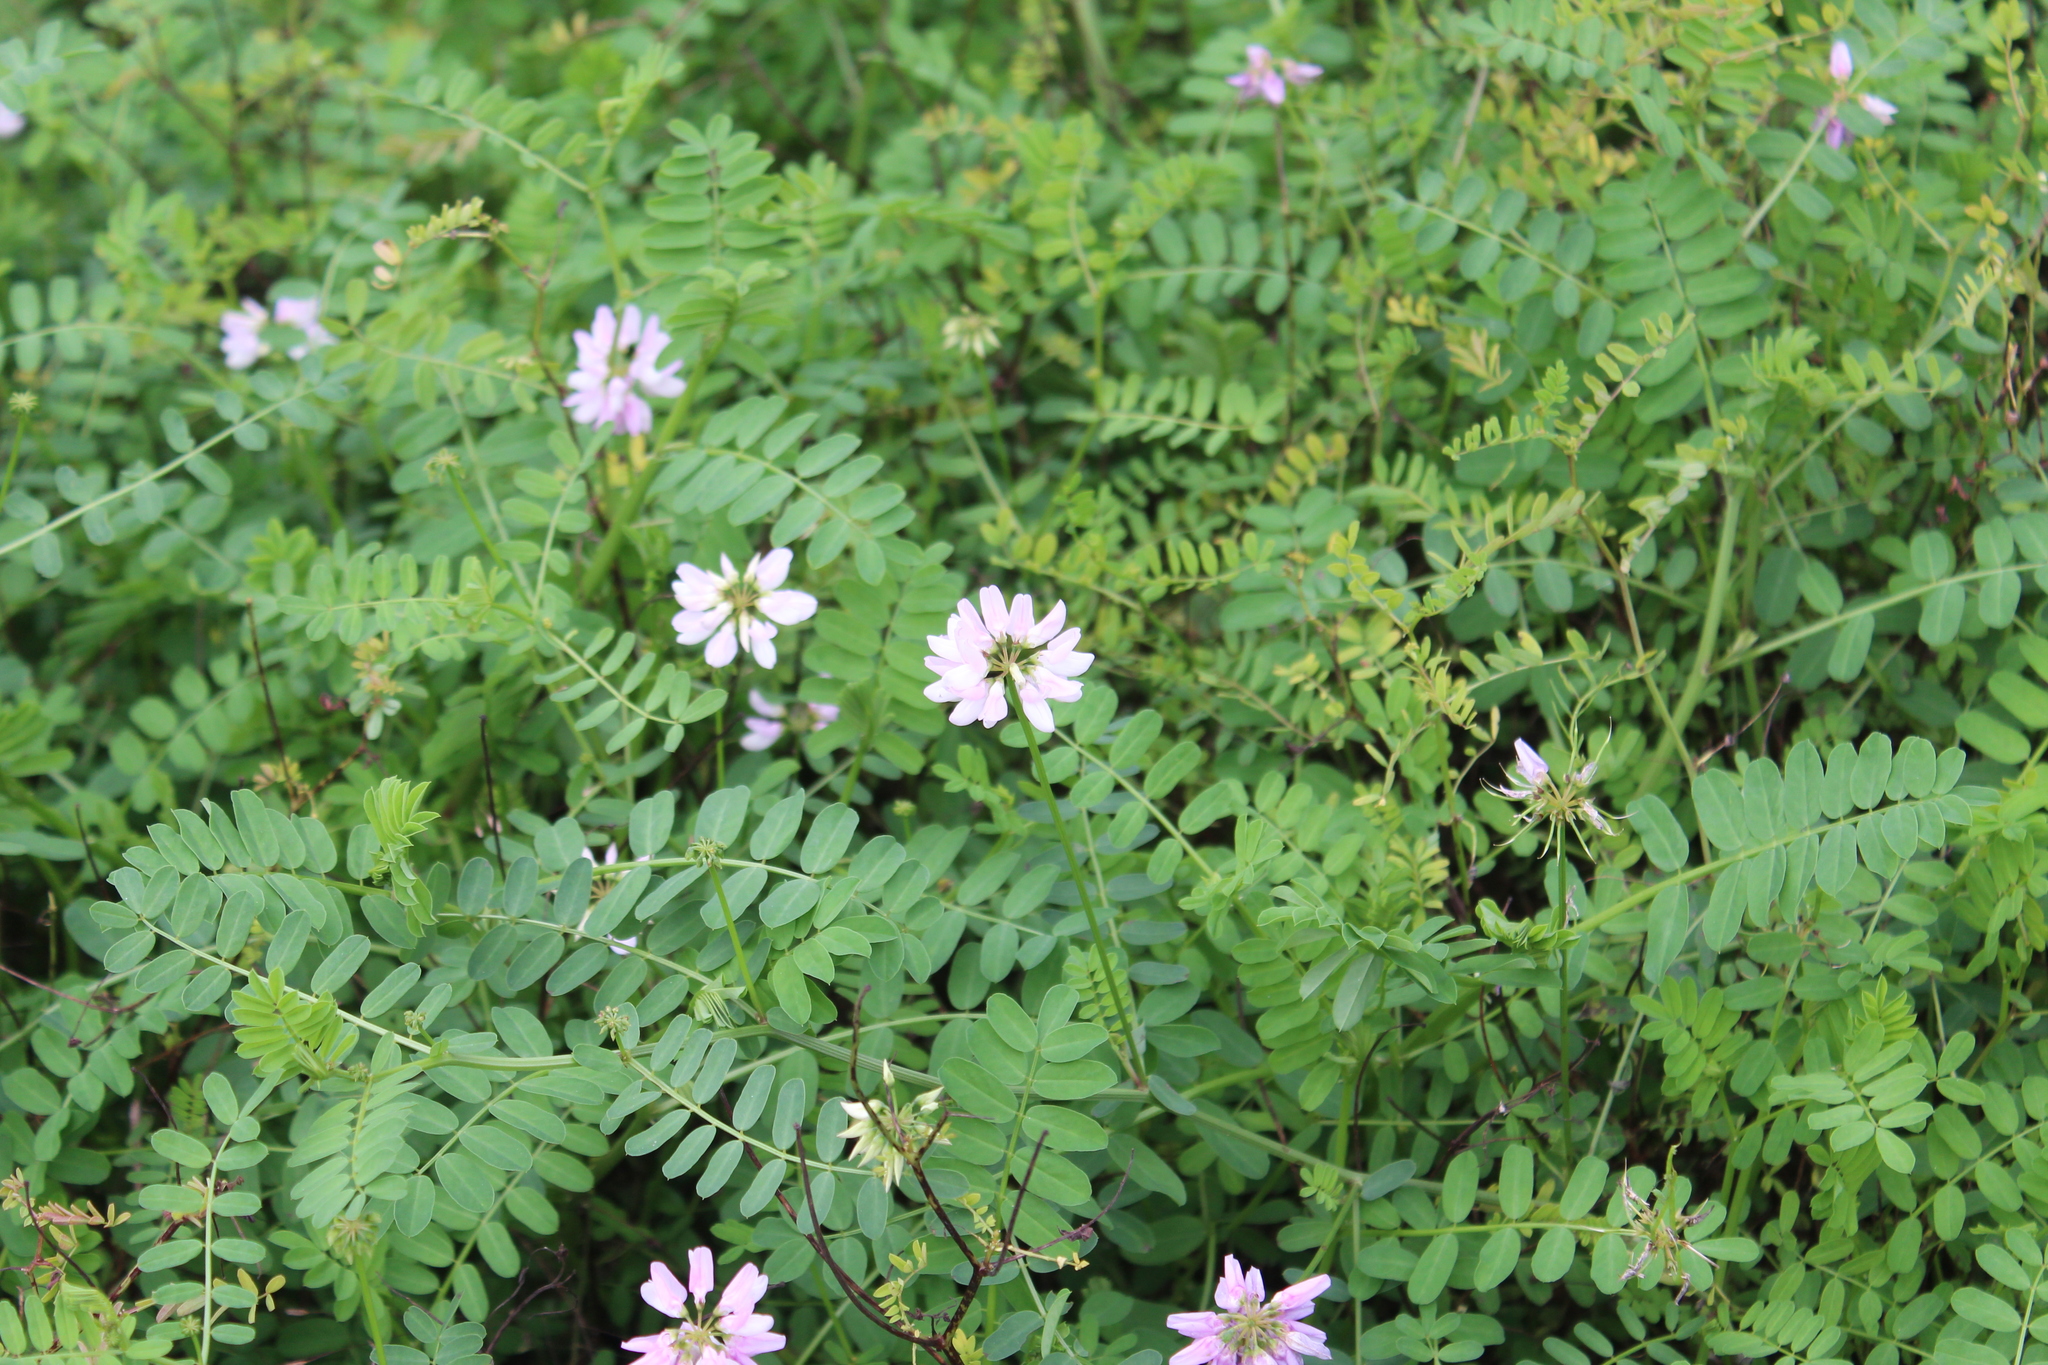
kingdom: Plantae
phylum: Tracheophyta
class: Magnoliopsida
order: Fabales
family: Fabaceae
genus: Coronilla
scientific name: Coronilla varia
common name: Crownvetch
